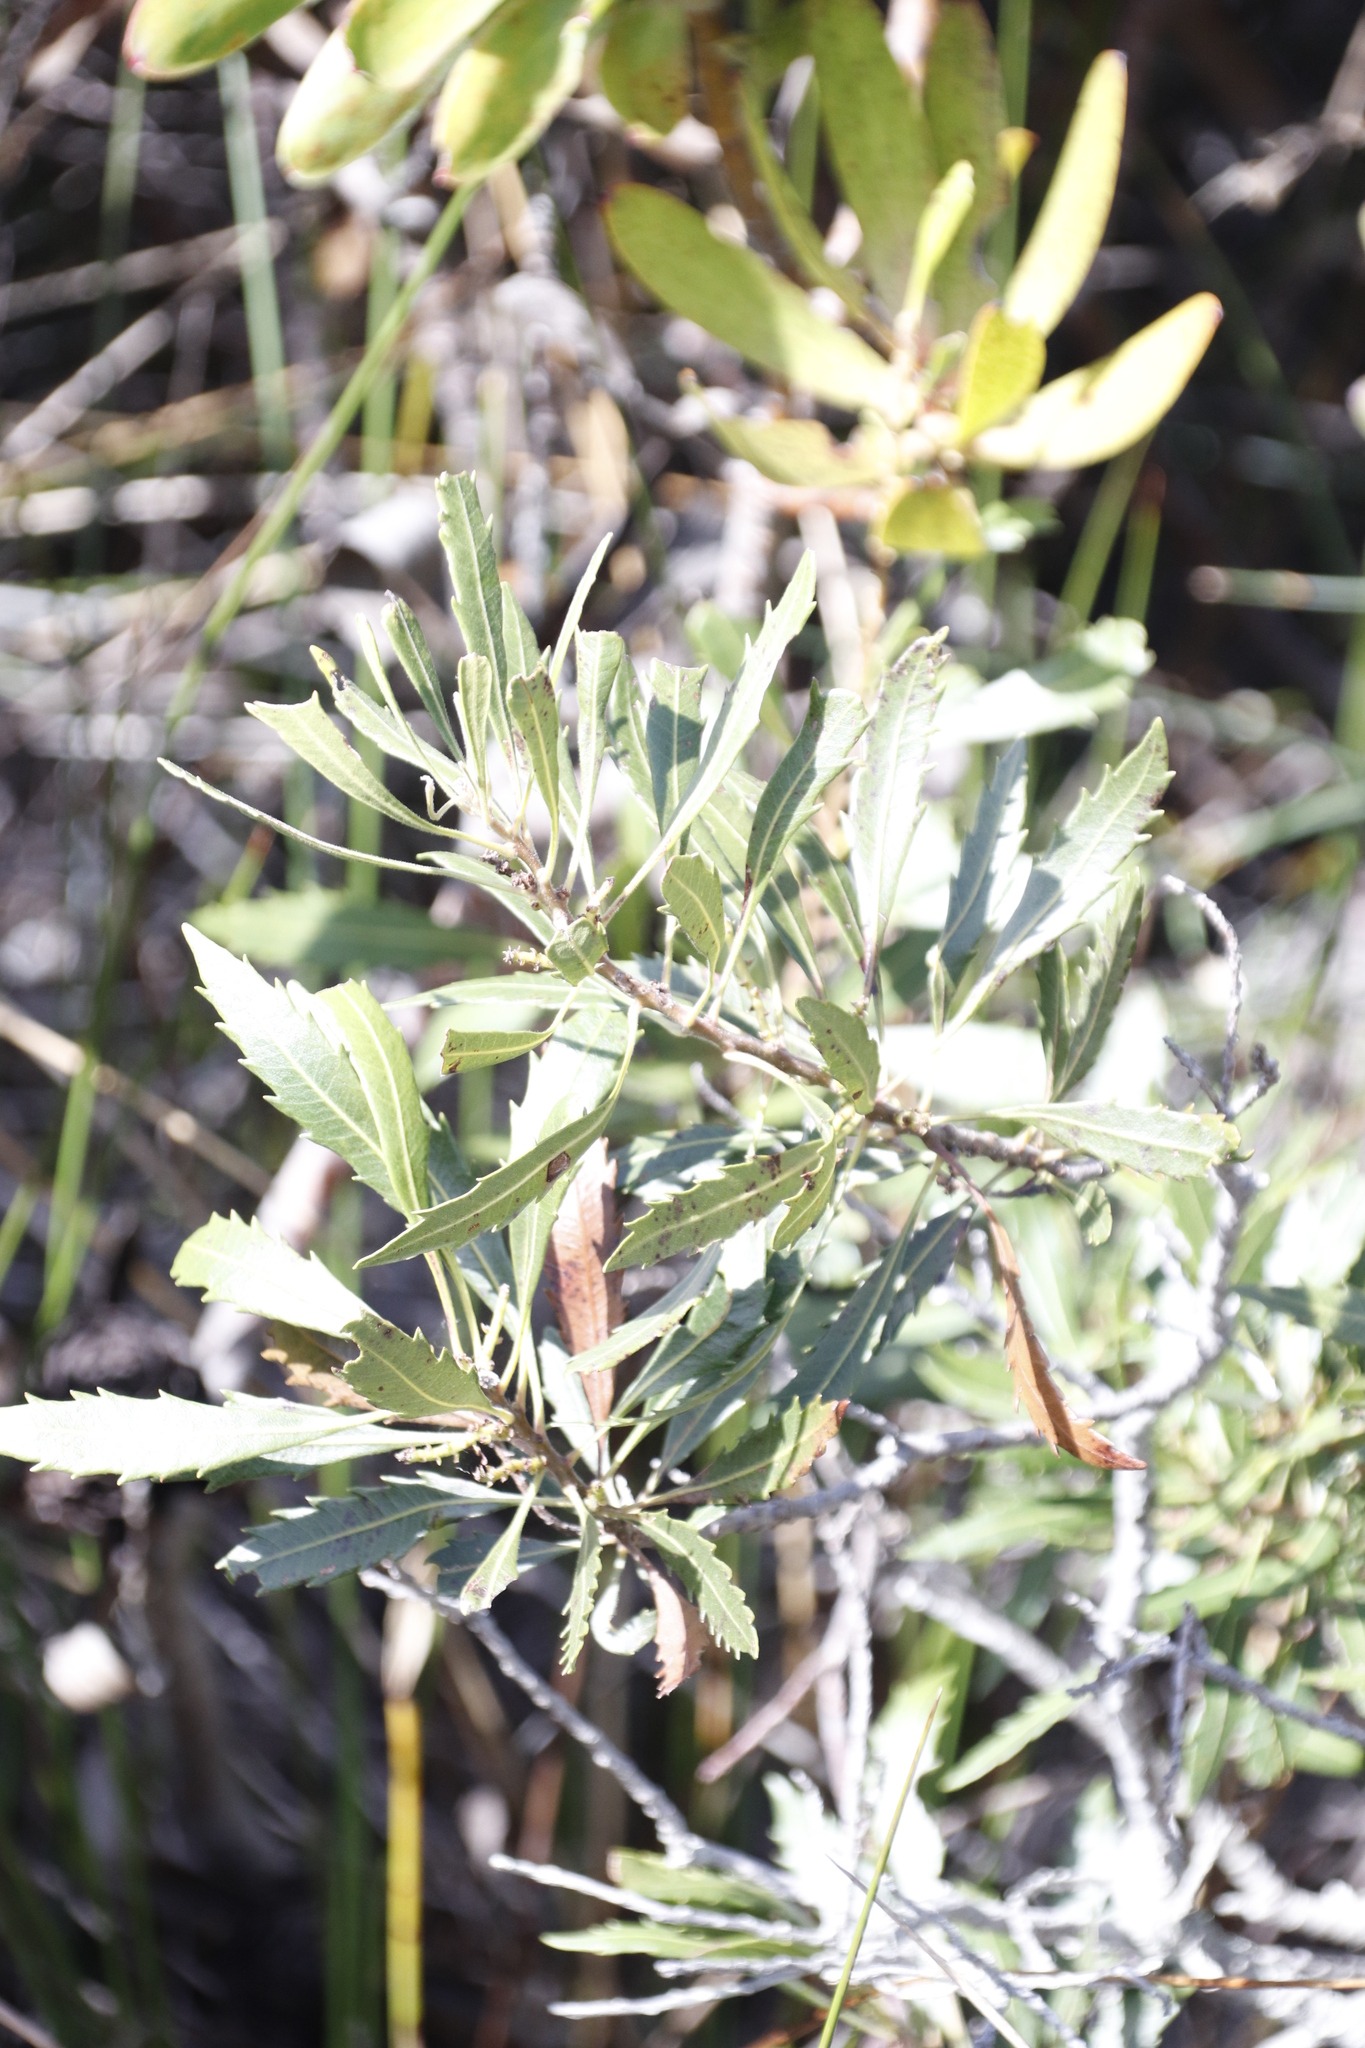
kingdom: Plantae
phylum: Tracheophyta
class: Magnoliopsida
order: Fagales
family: Myricaceae
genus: Morella
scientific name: Morella serrata
